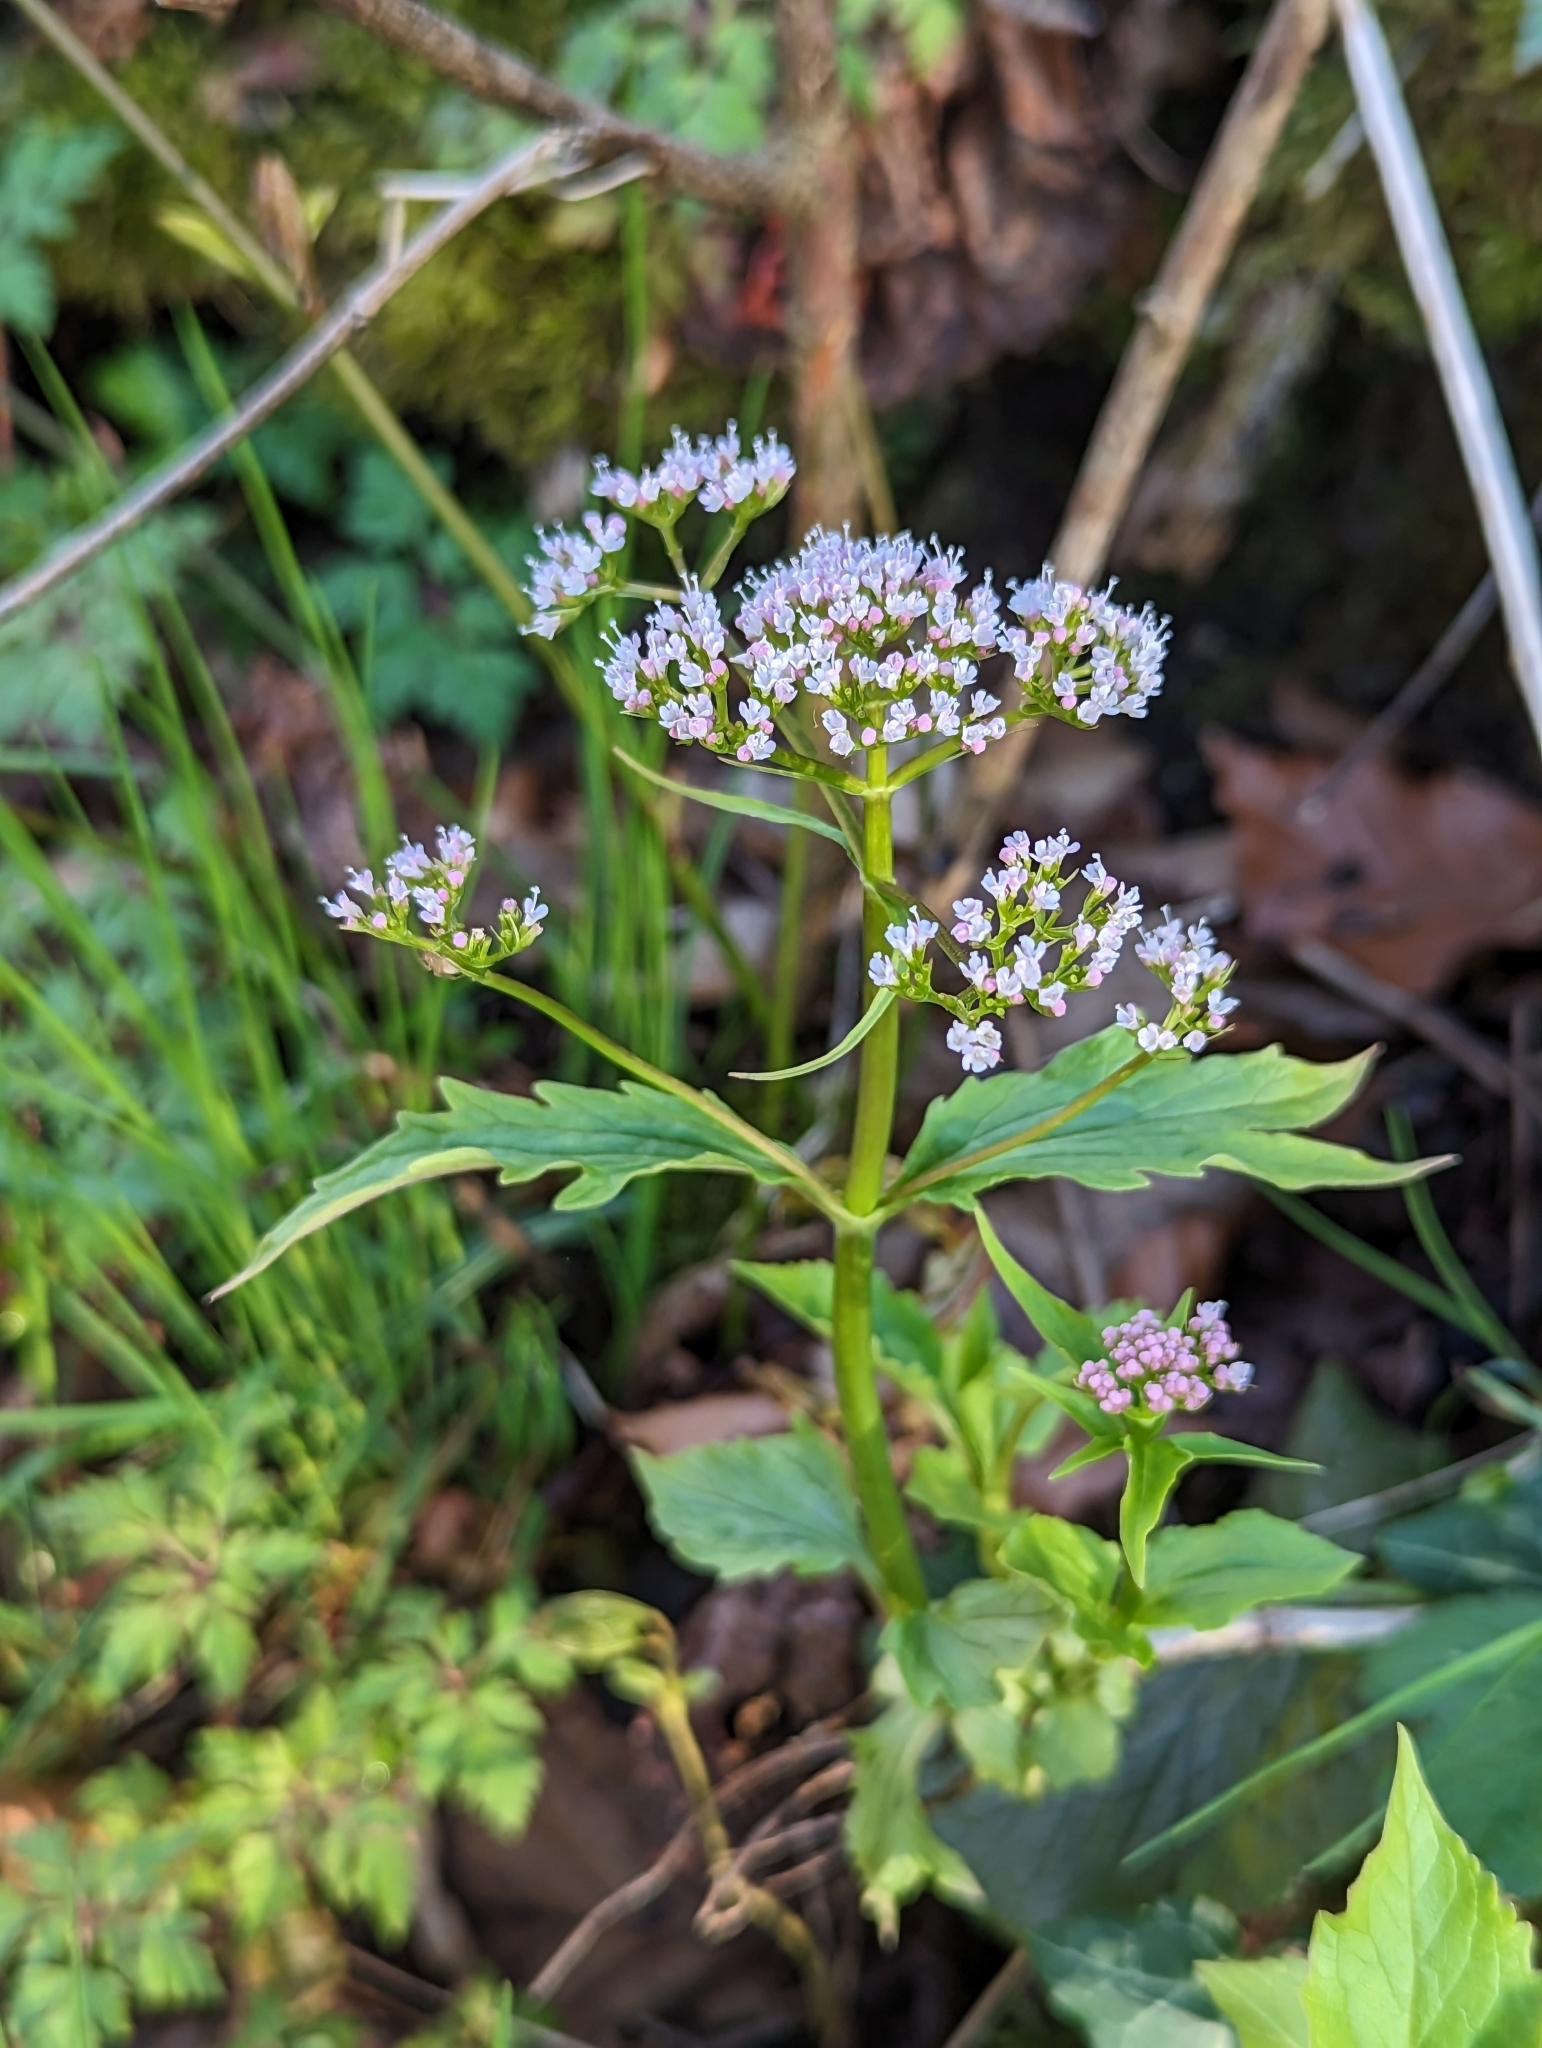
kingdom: Plantae
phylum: Tracheophyta
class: Magnoliopsida
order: Dipsacales
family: Caprifoliaceae
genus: Valeriana
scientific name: Valeriana tripteris
